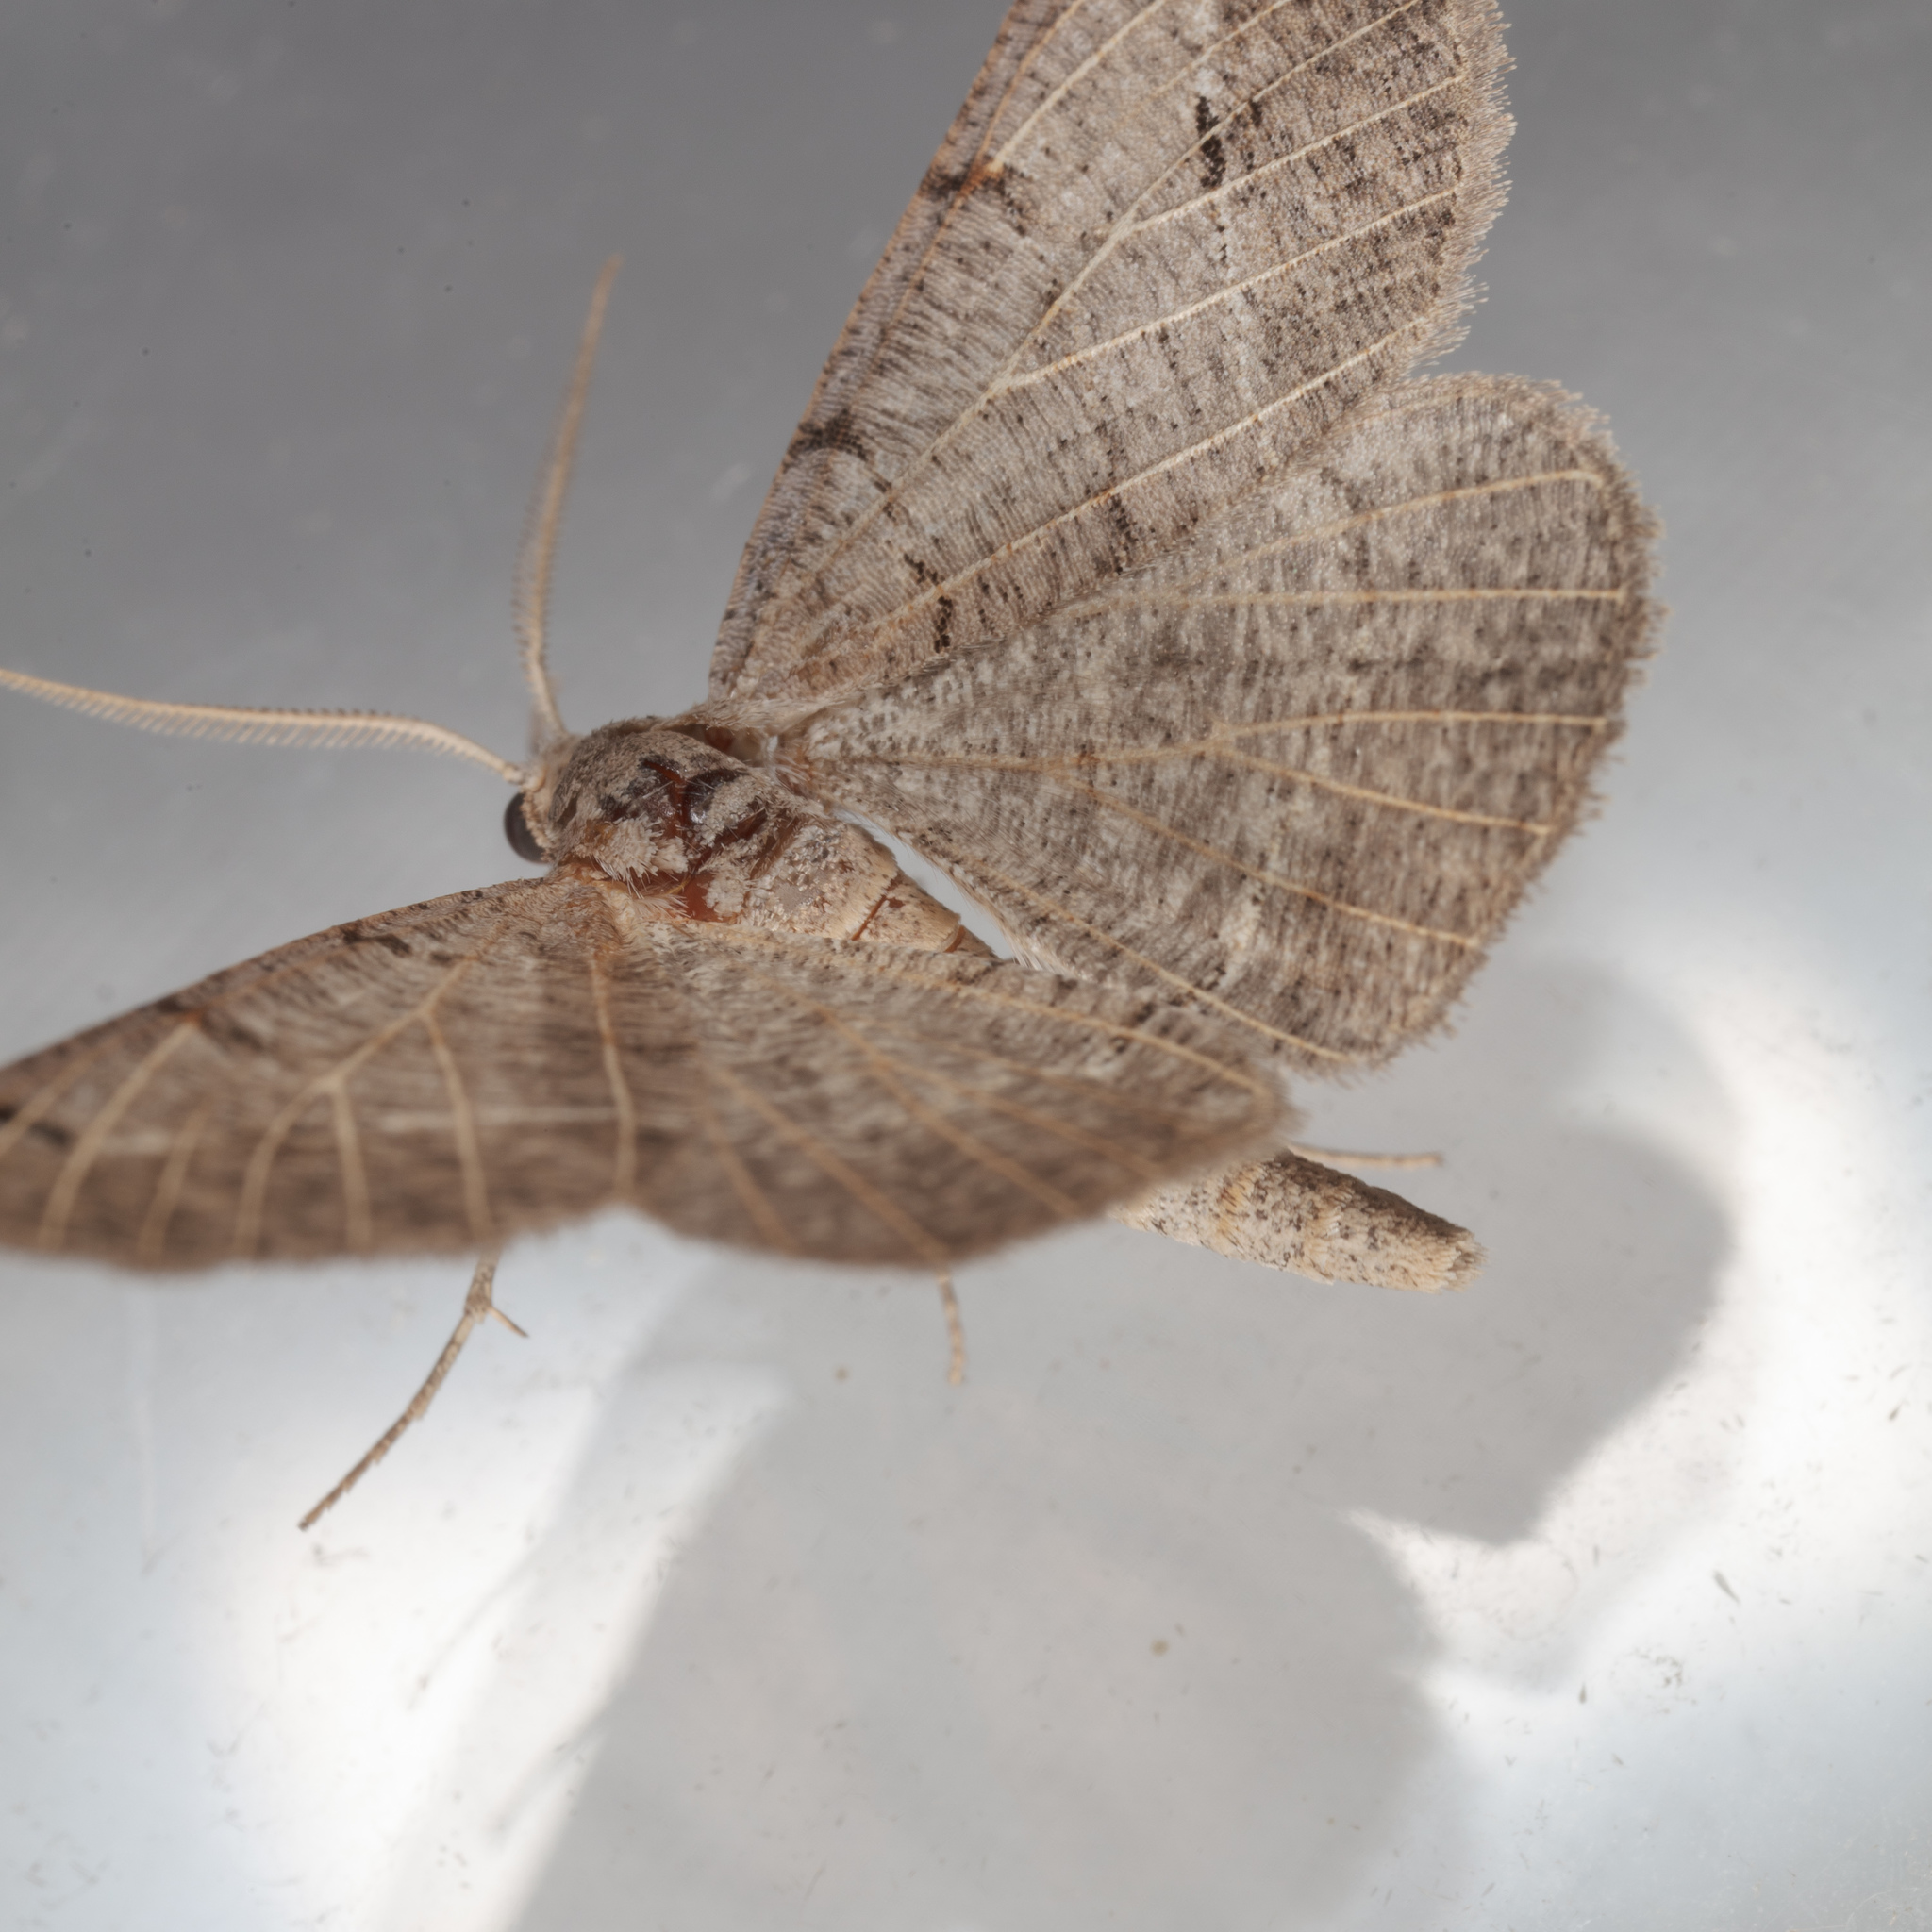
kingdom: Animalia
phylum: Arthropoda
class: Insecta
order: Lepidoptera
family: Geometridae
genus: Isturgia
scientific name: Isturgia dislocaria
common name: Pale-viened enconista
